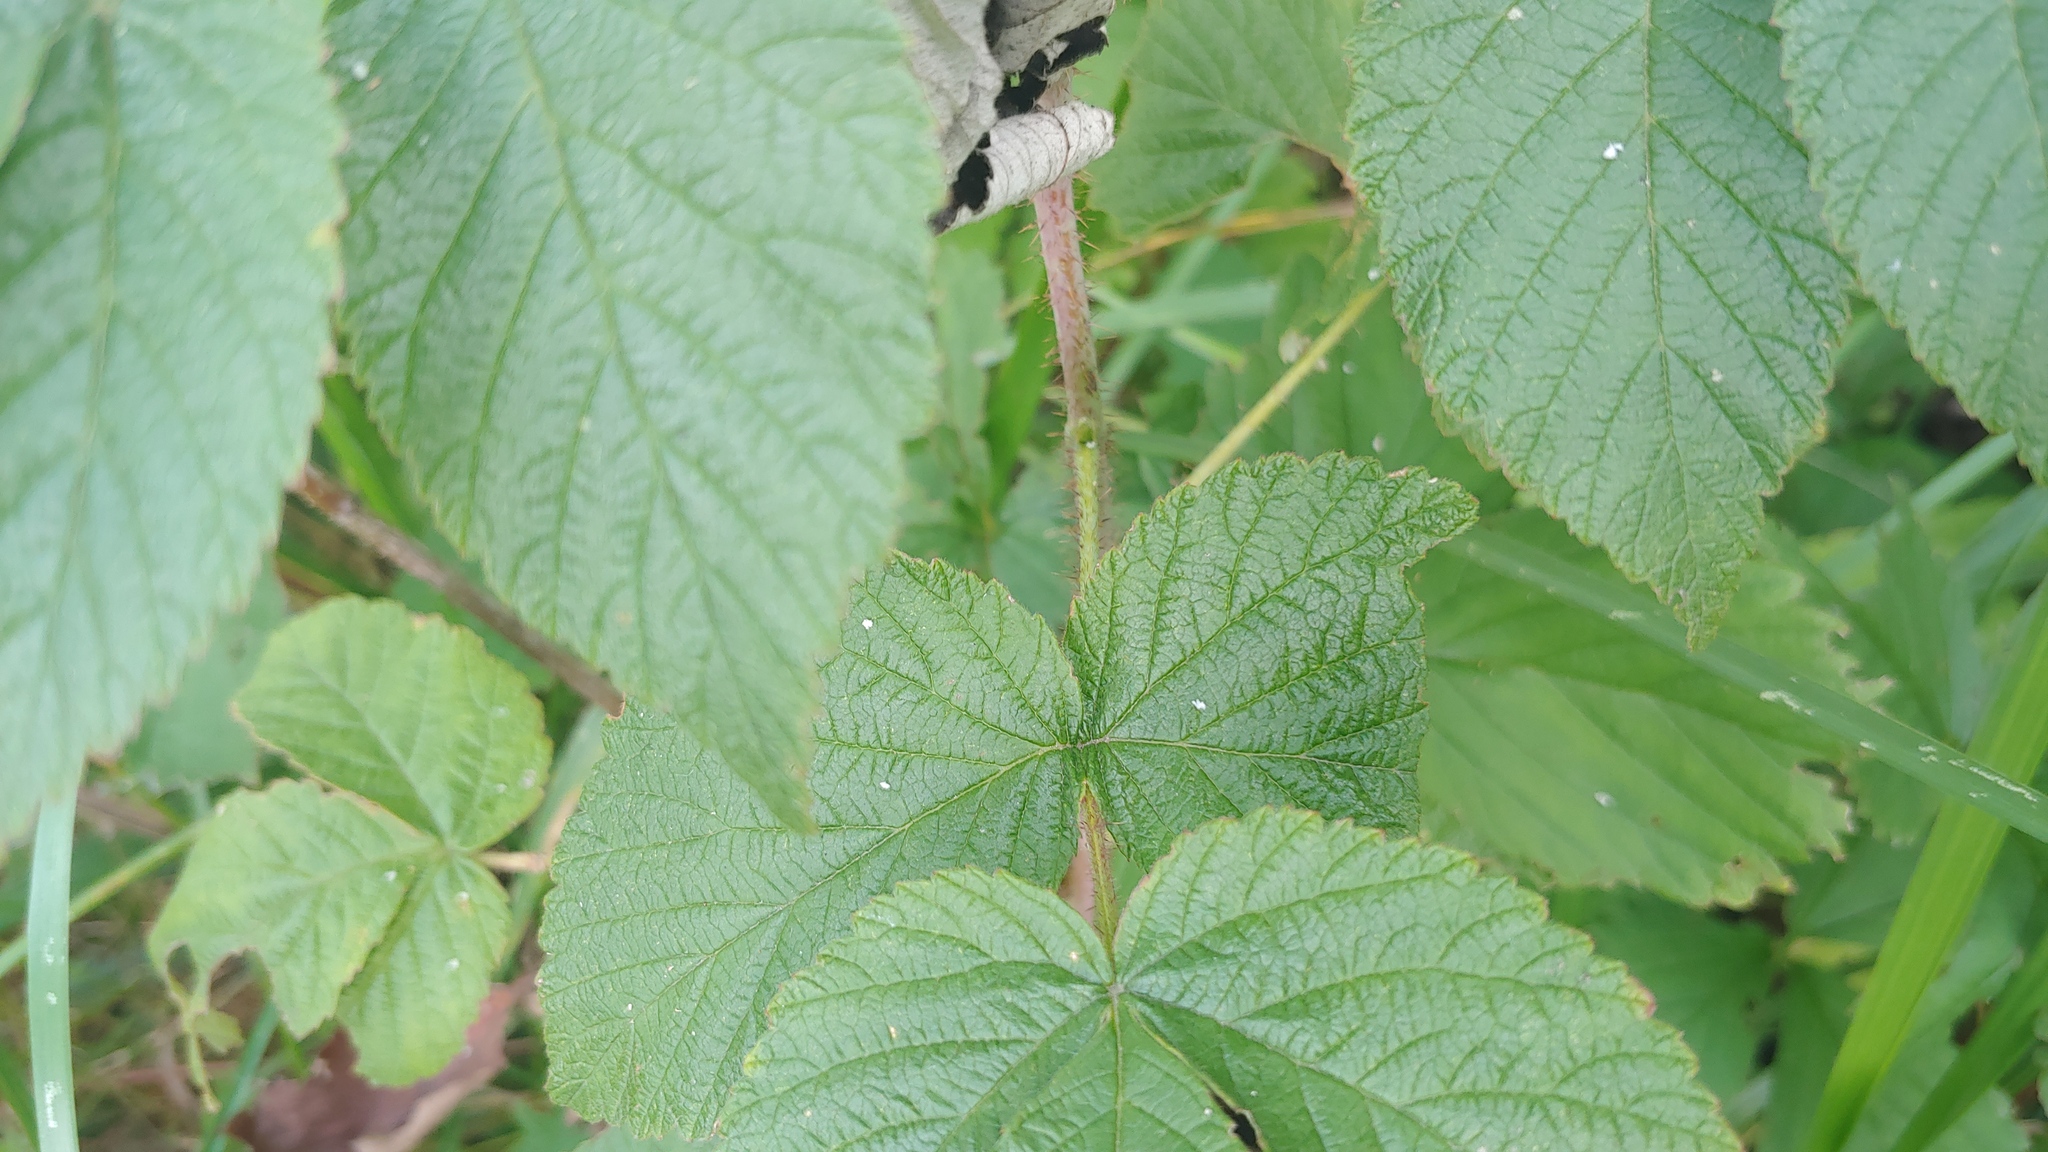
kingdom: Plantae
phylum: Tracheophyta
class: Magnoliopsida
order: Rosales
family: Rosaceae
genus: Rubus
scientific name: Rubus idaeus
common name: Raspberry
